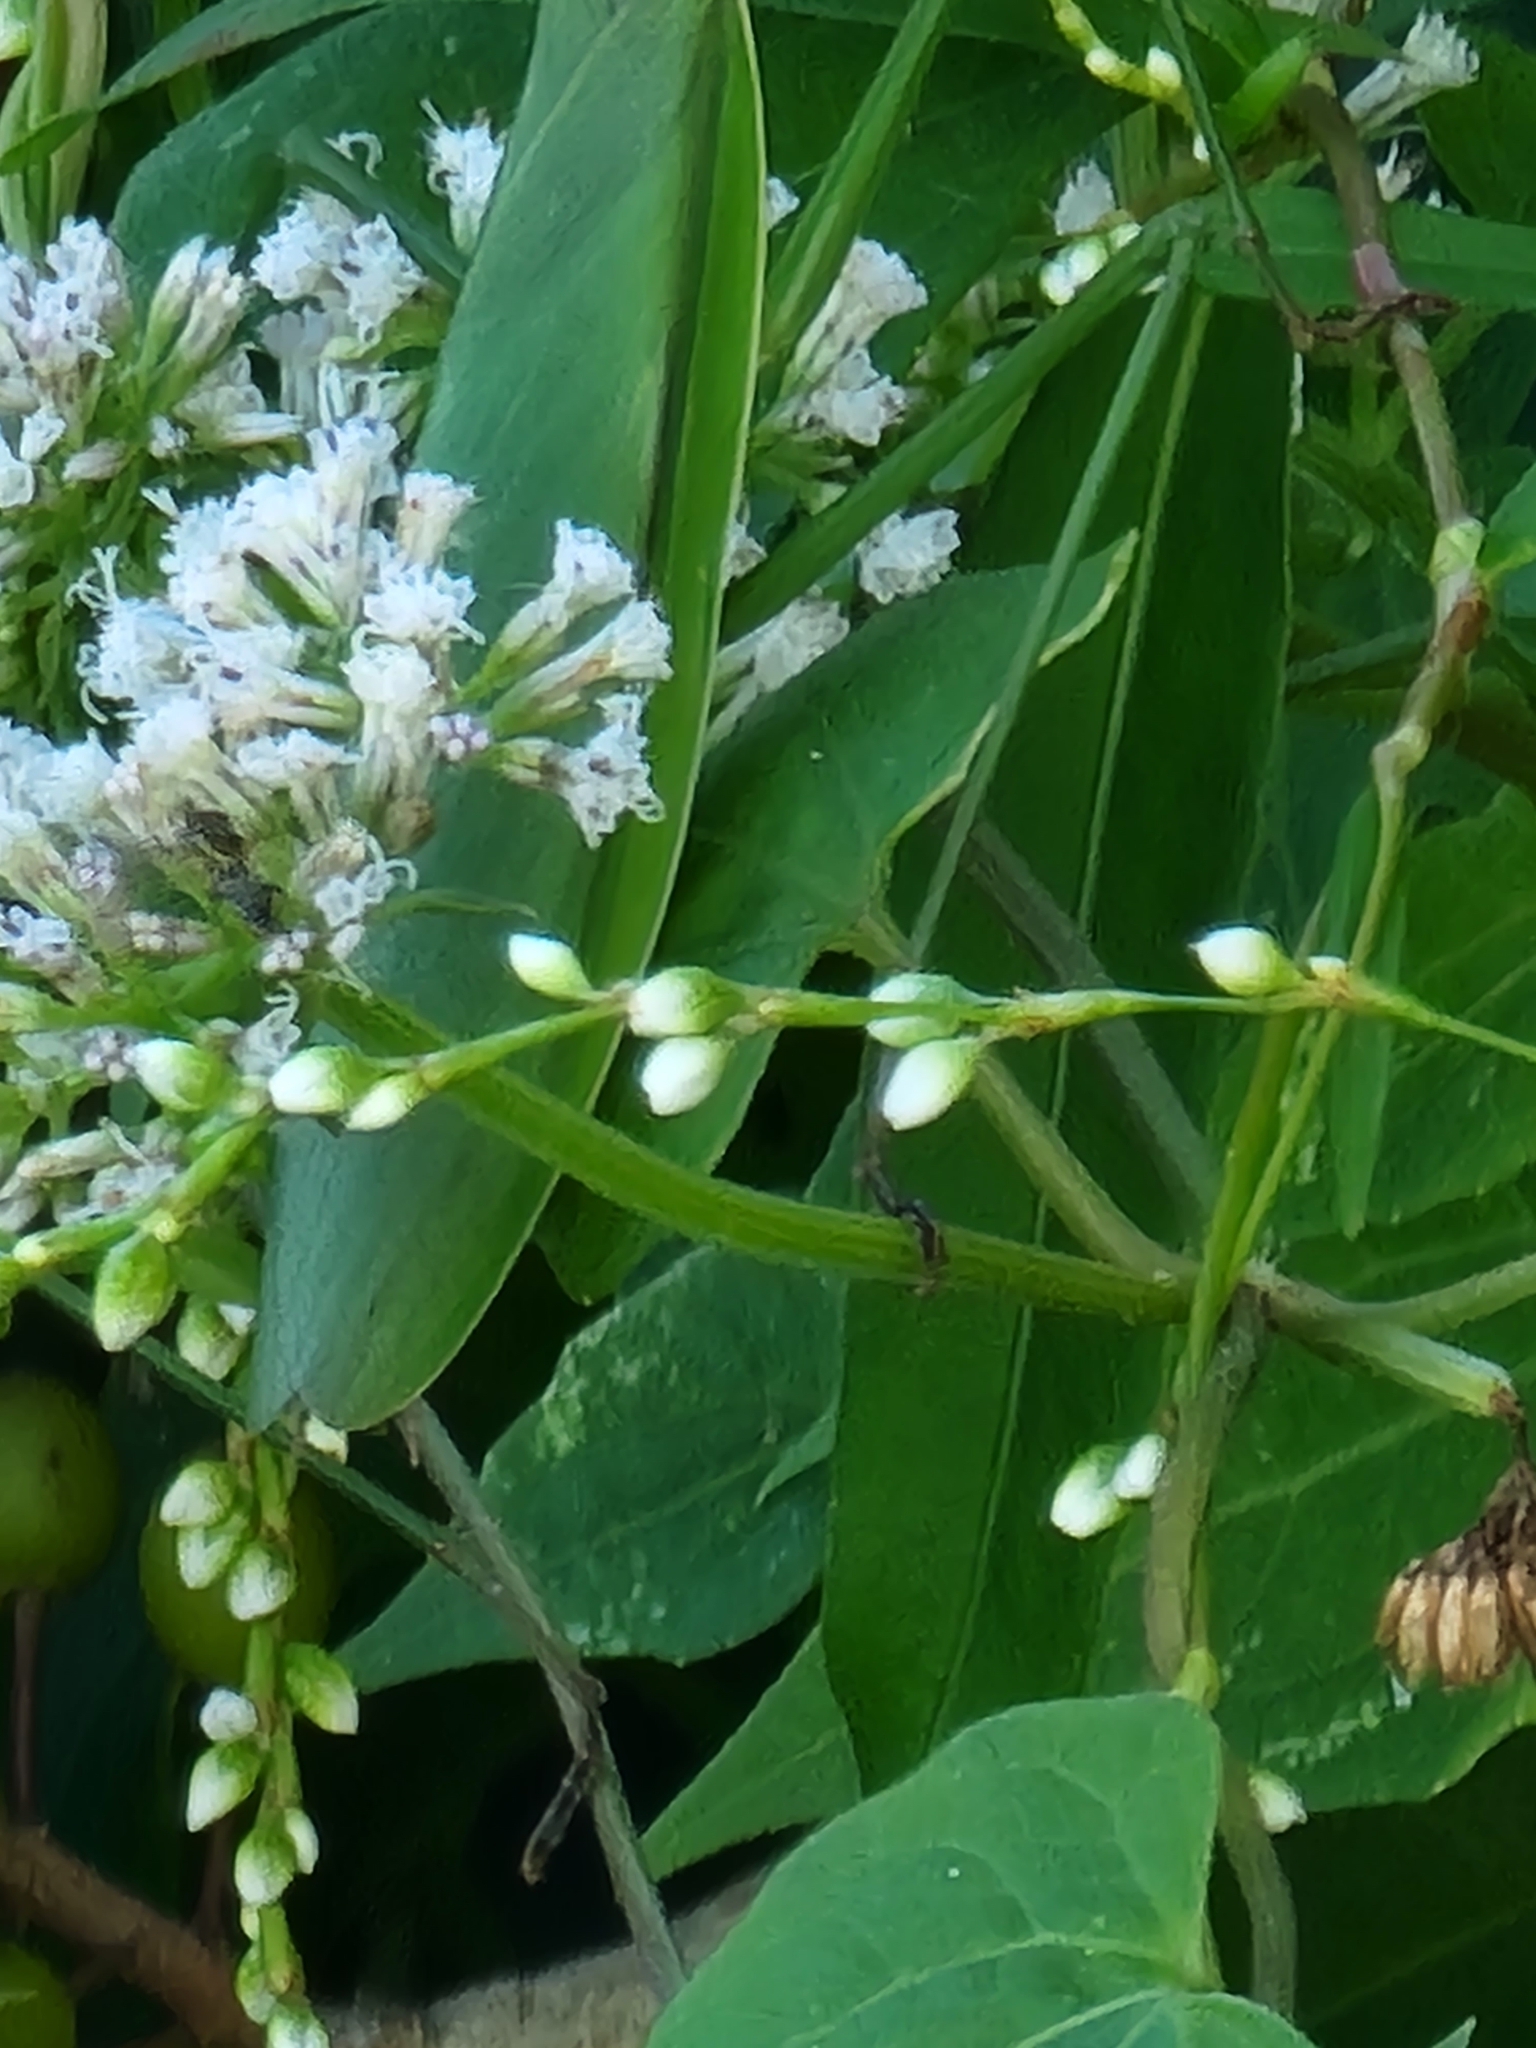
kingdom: Plantae
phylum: Tracheophyta
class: Magnoliopsida
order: Asterales
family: Asteraceae
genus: Mikania
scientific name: Mikania scandens
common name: Climbing hempvine
